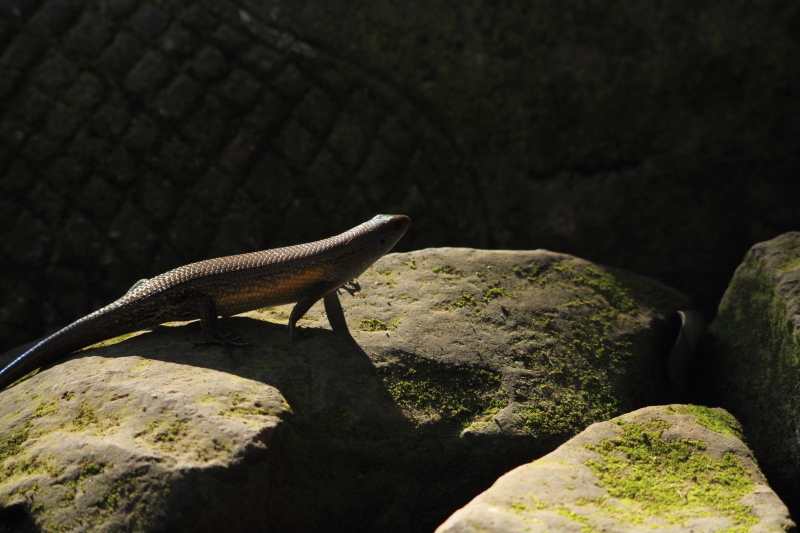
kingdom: Animalia
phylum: Chordata
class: Squamata
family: Scincidae
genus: Eutropis
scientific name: Eutropis multifasciata
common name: Common mabuya
